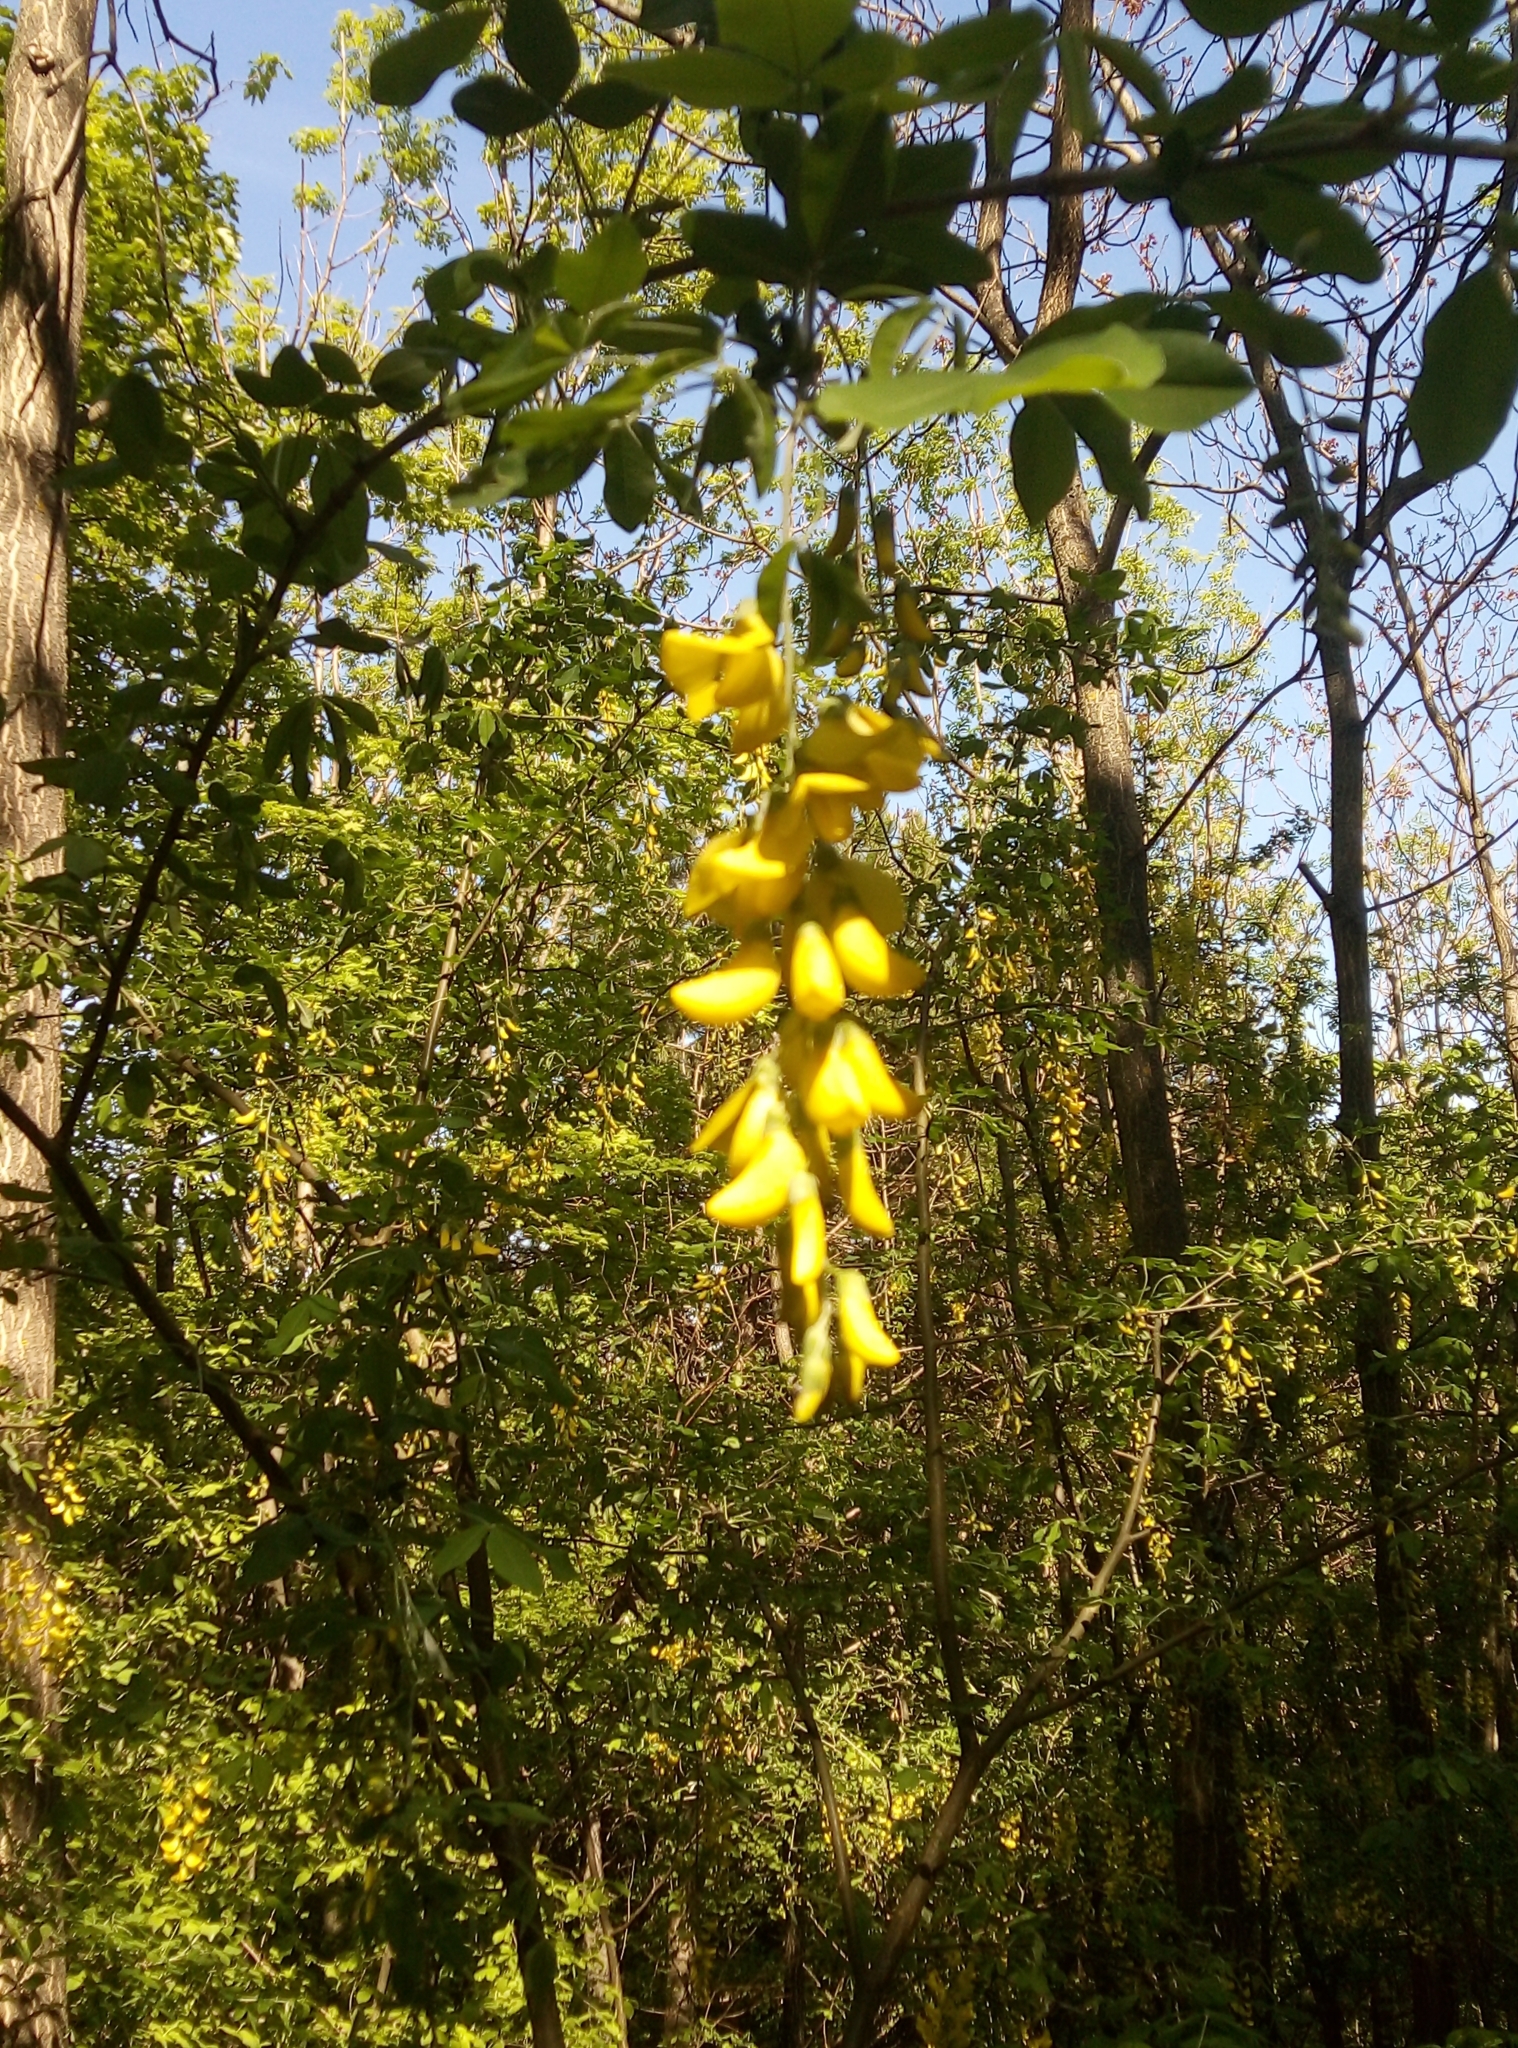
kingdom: Plantae
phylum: Tracheophyta
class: Magnoliopsida
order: Fabales
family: Fabaceae
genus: Laburnum
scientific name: Laburnum anagyroides
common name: Laburnum
